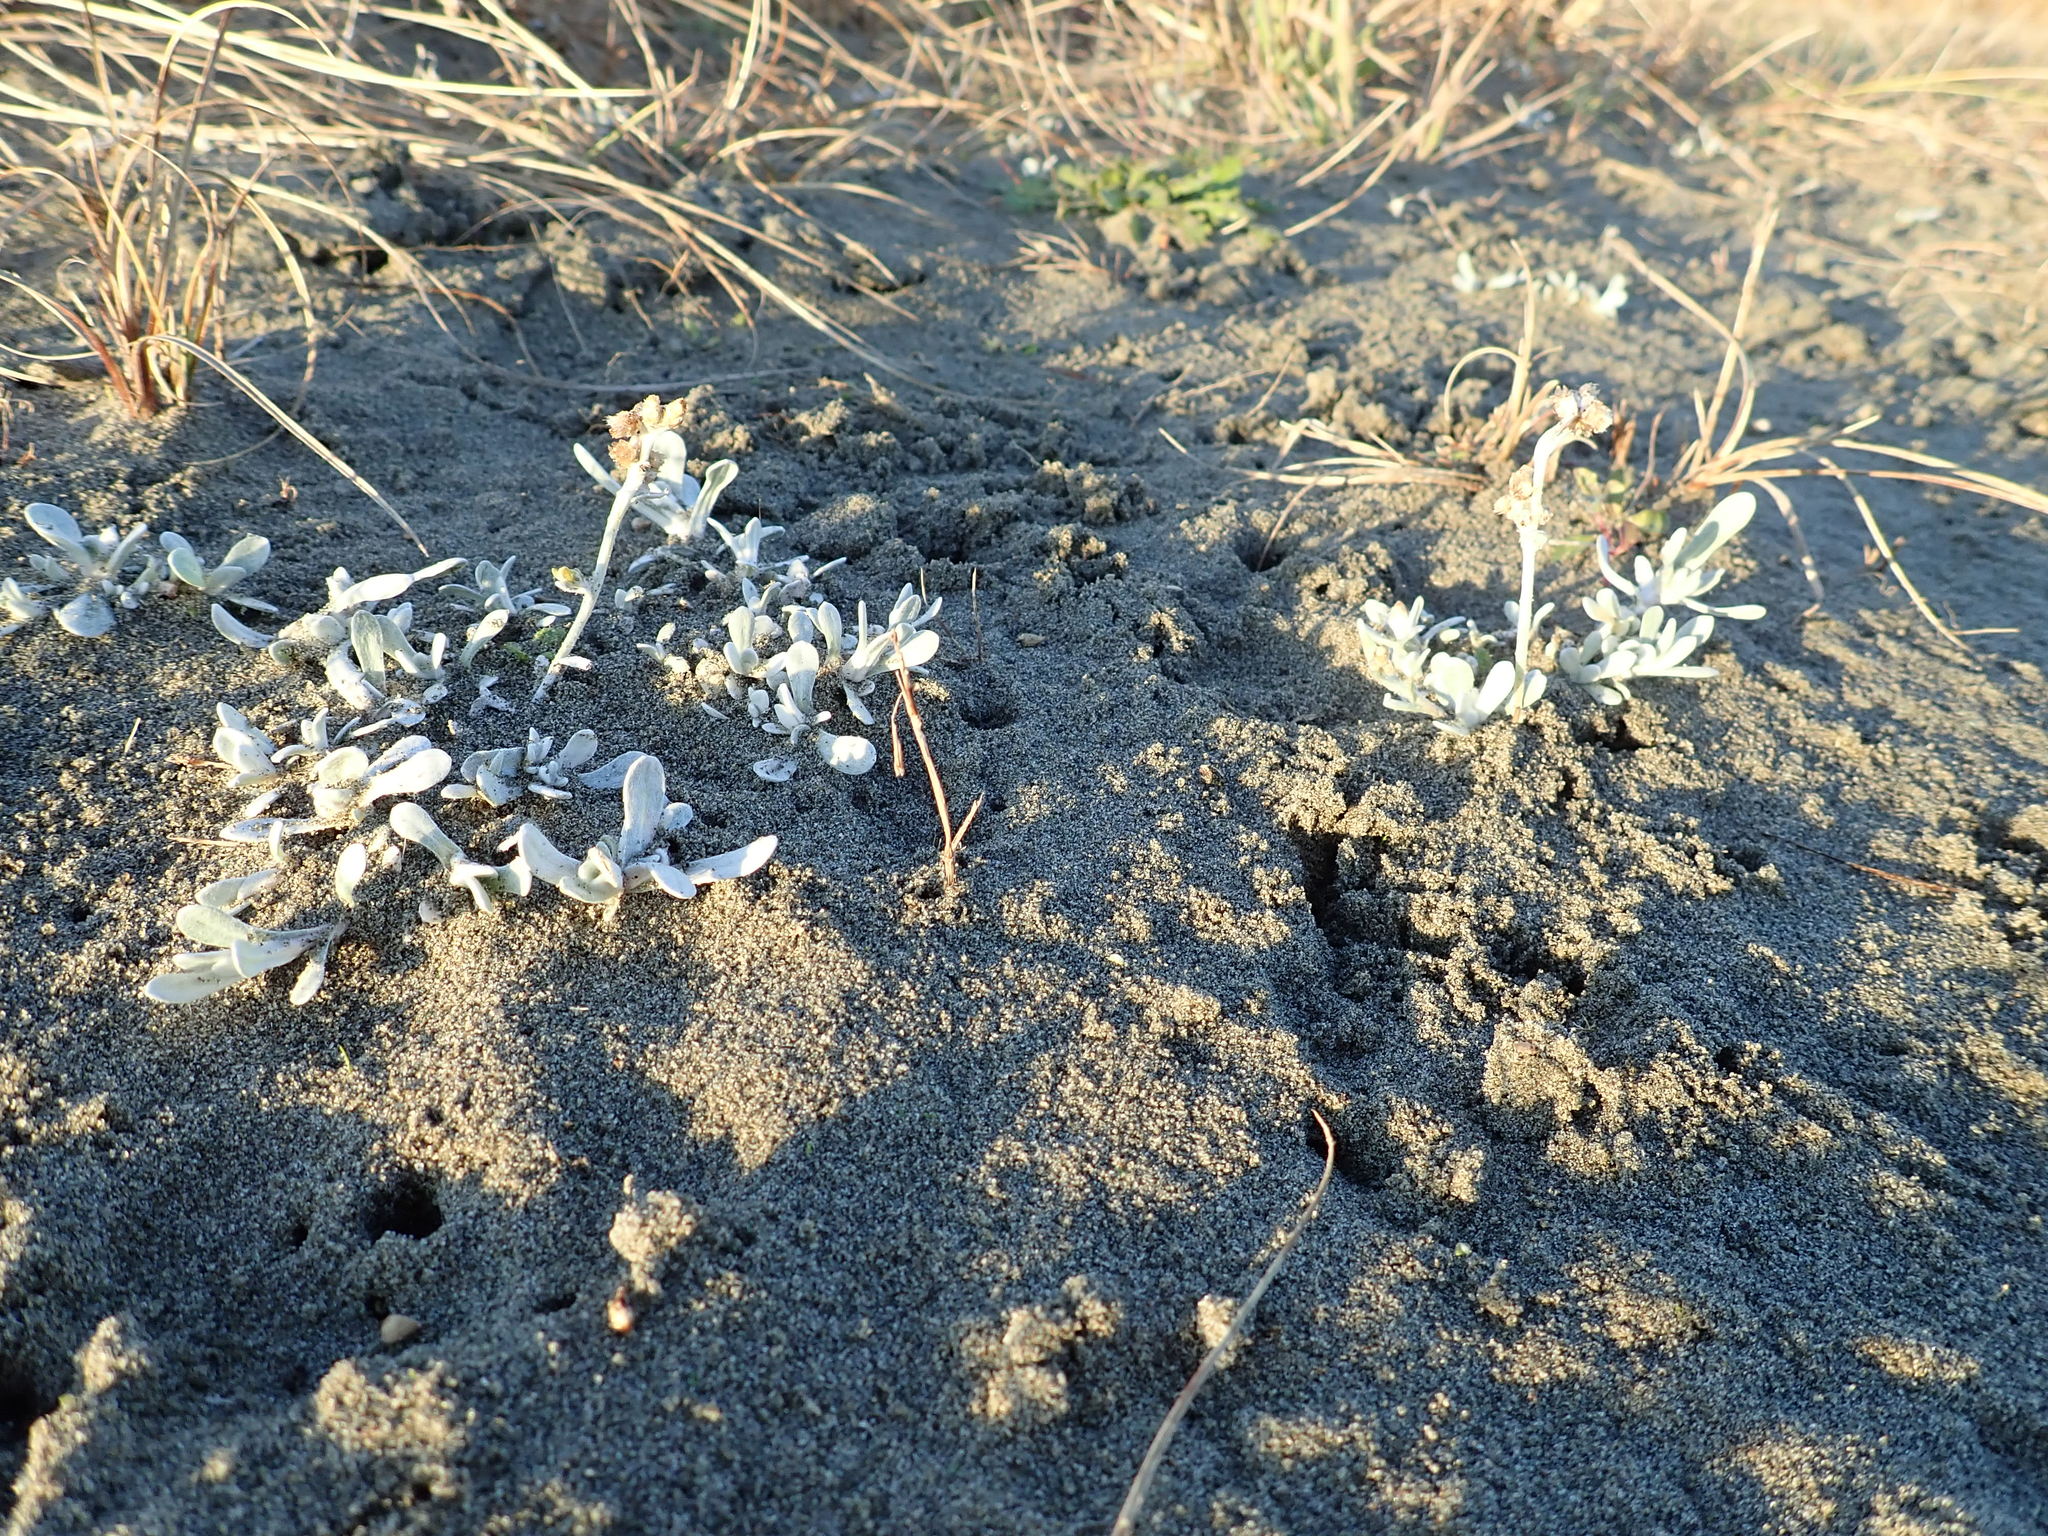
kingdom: Plantae
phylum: Tracheophyta
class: Magnoliopsida
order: Asterales
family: Asteraceae
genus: Helichrysum
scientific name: Helichrysum luteoalbum
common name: Daisy
